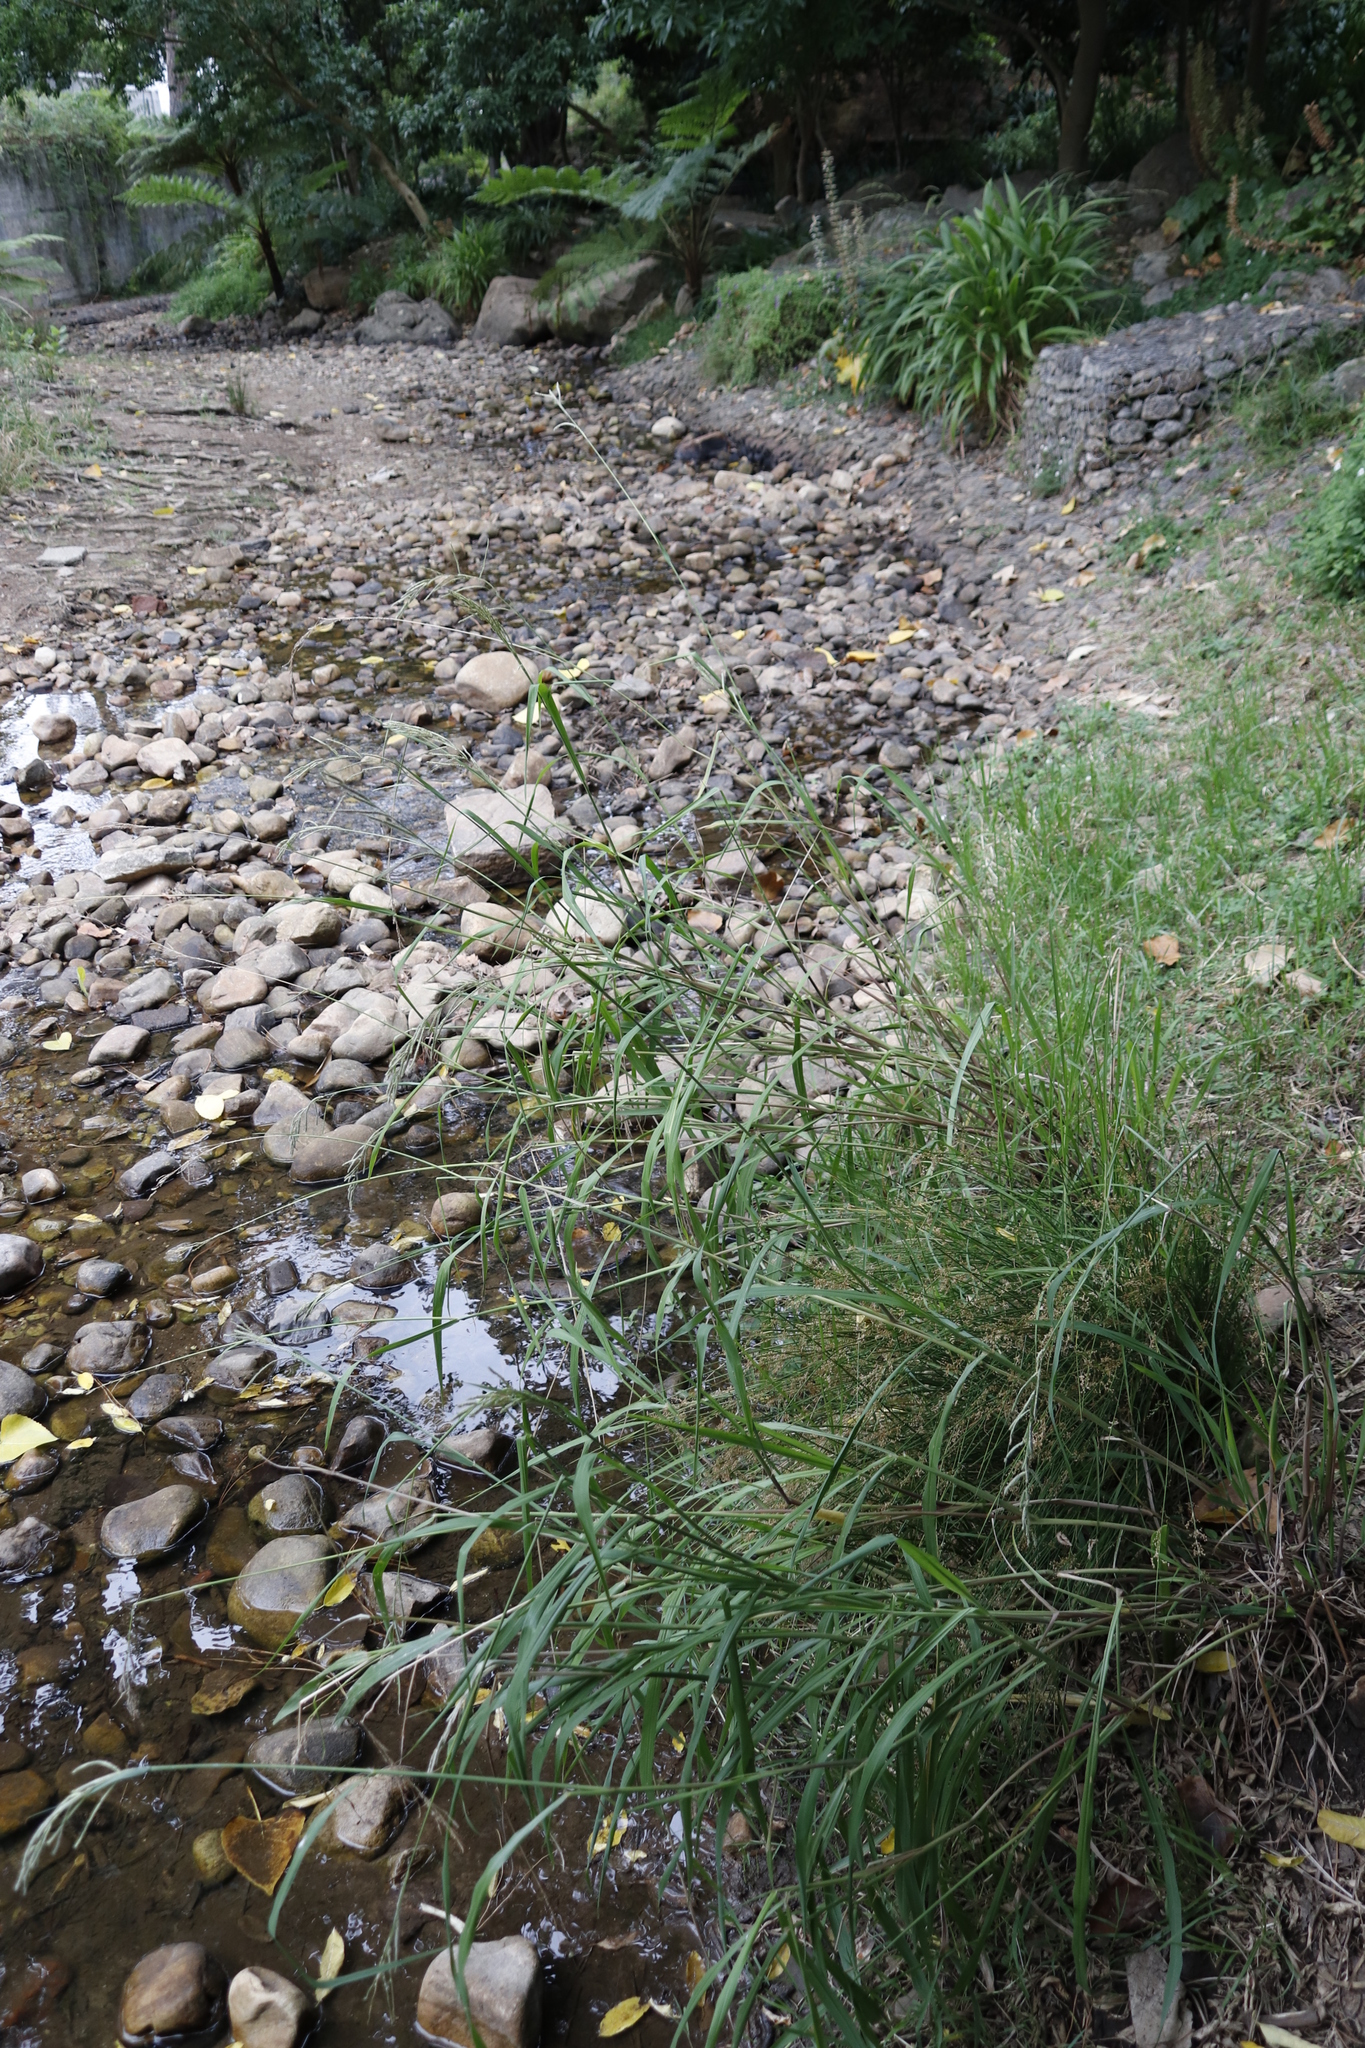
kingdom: Plantae
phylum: Tracheophyta
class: Liliopsida
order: Poales
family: Poaceae
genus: Paspalum
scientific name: Paspalum urvillei
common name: Vasey's grass
